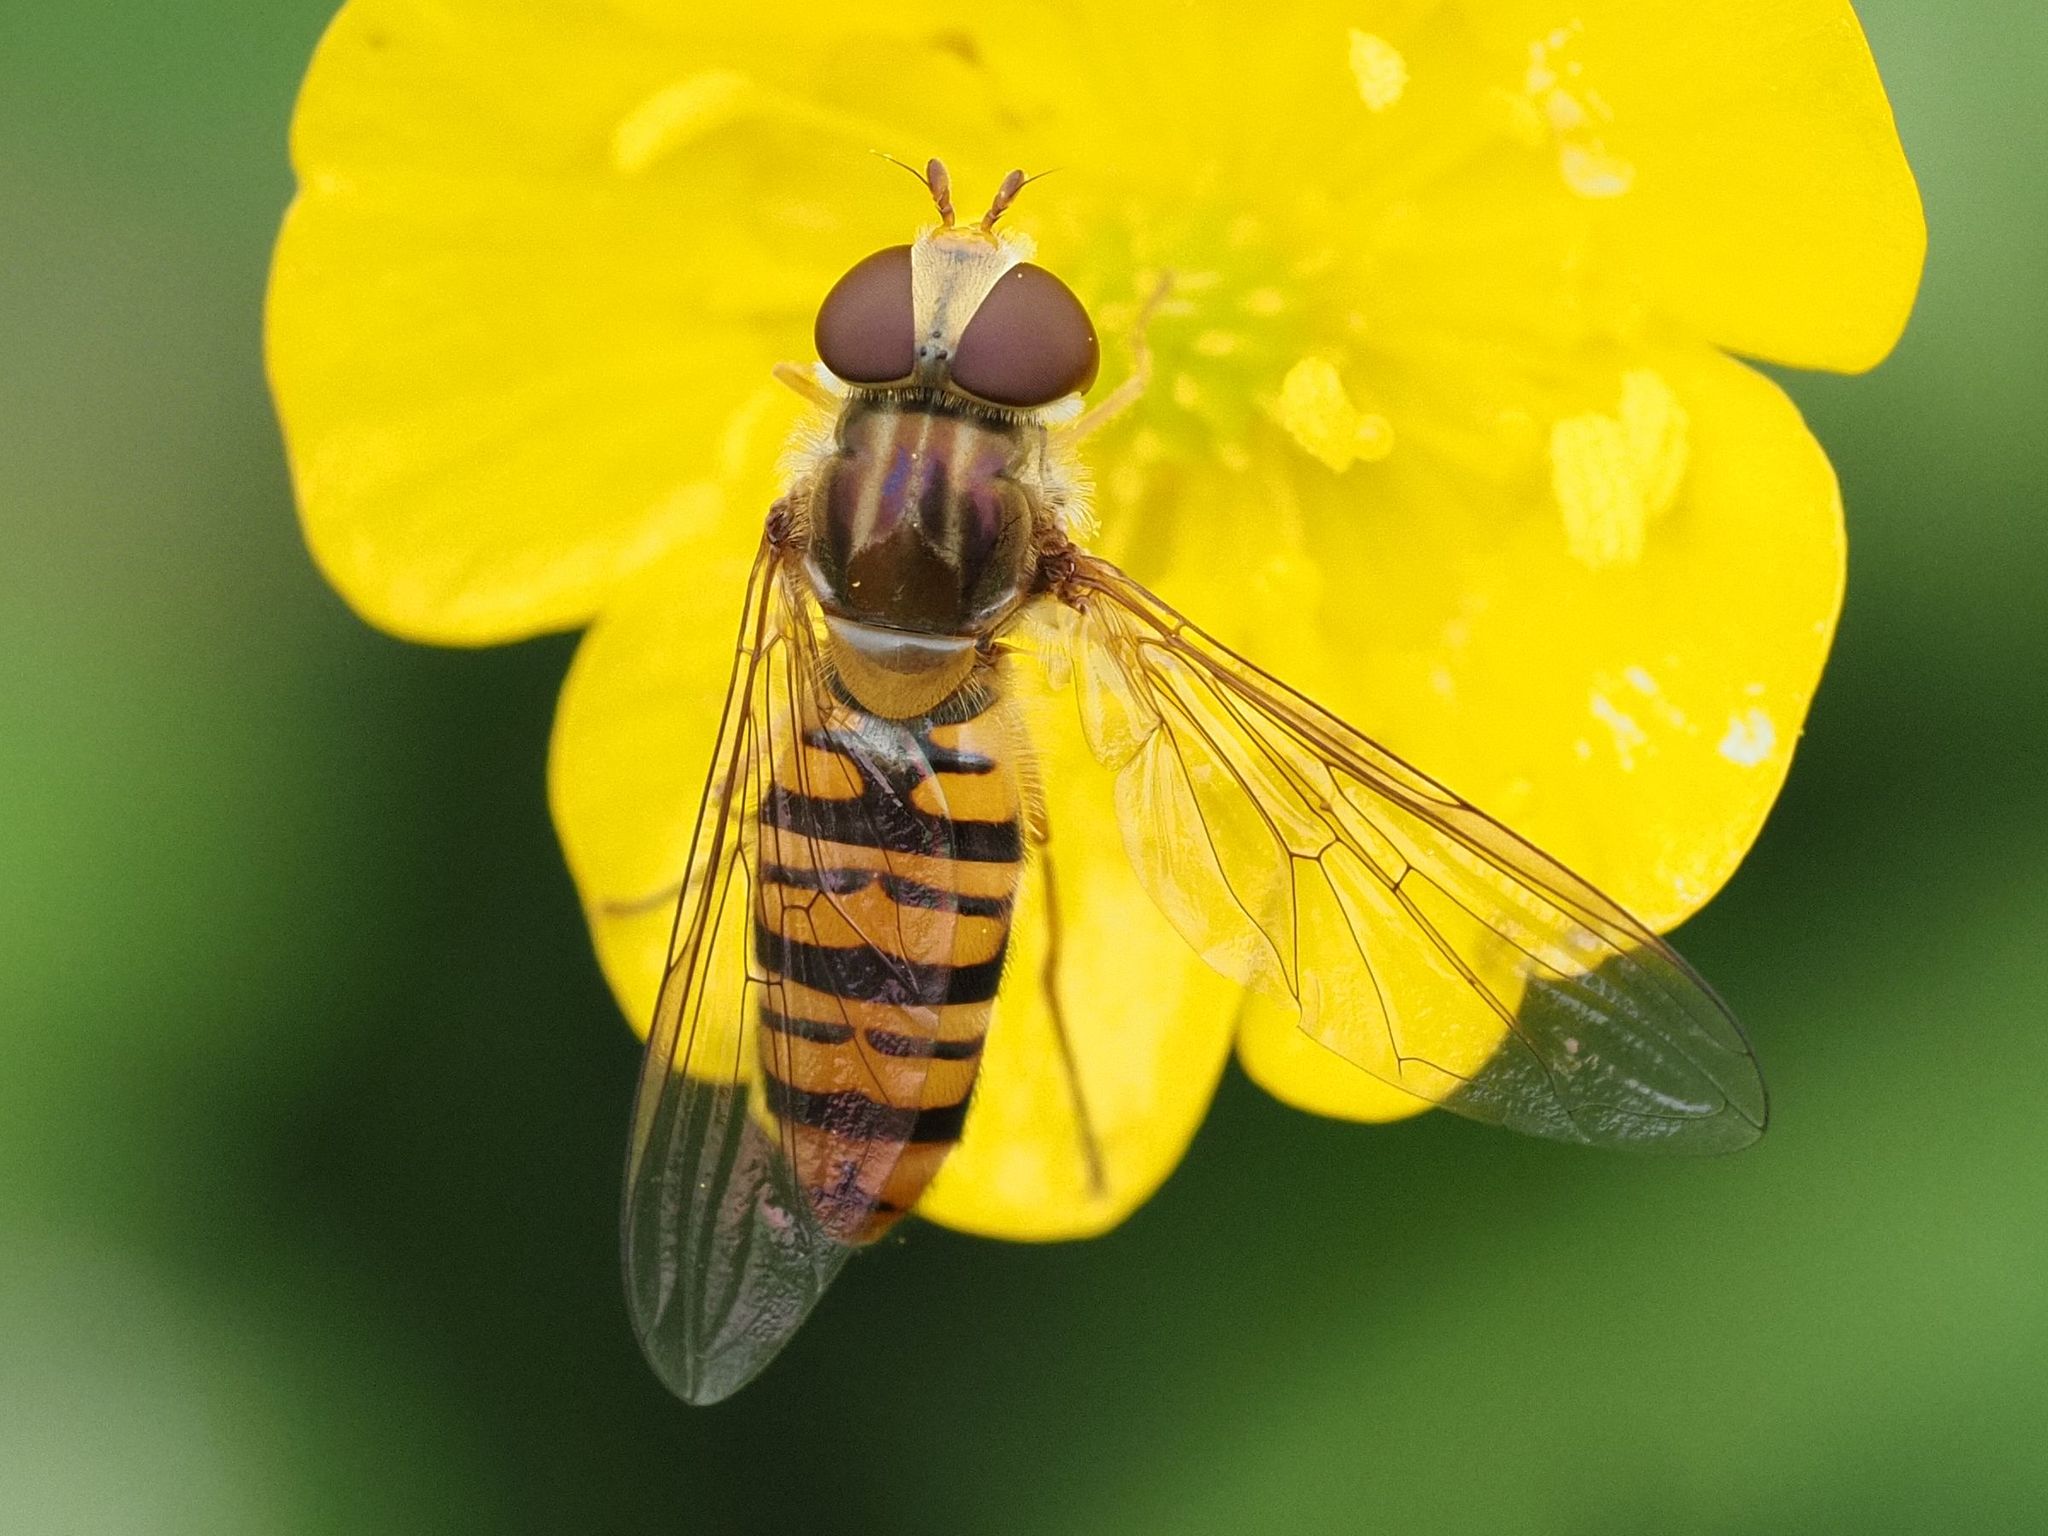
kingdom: Animalia
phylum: Arthropoda
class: Insecta
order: Diptera
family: Syrphidae
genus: Episyrphus
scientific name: Episyrphus balteatus
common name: Marmalade hoverfly
